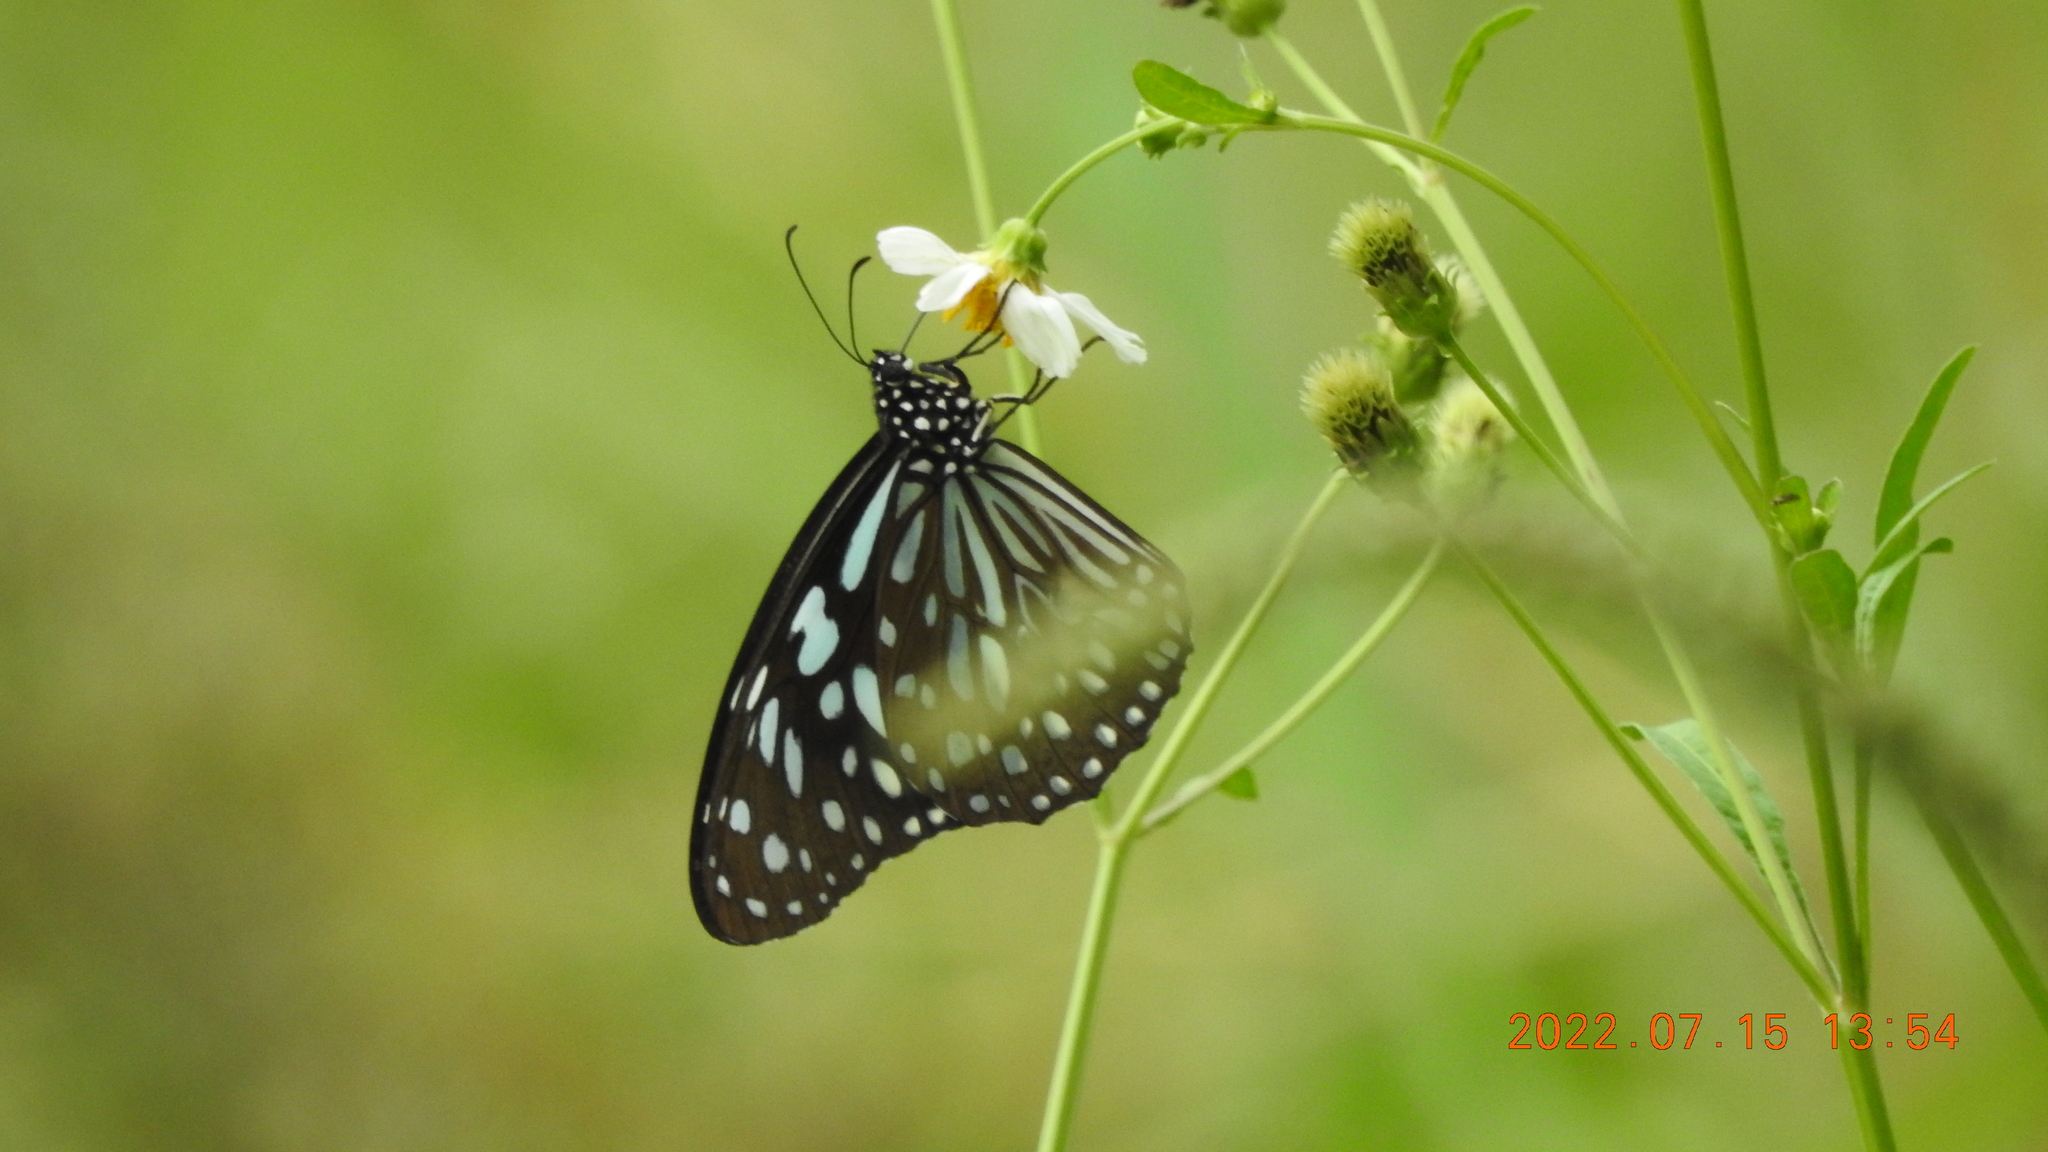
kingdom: Animalia
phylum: Arthropoda
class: Insecta
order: Lepidoptera
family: Nymphalidae
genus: Tirumala
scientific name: Tirumala limniace
